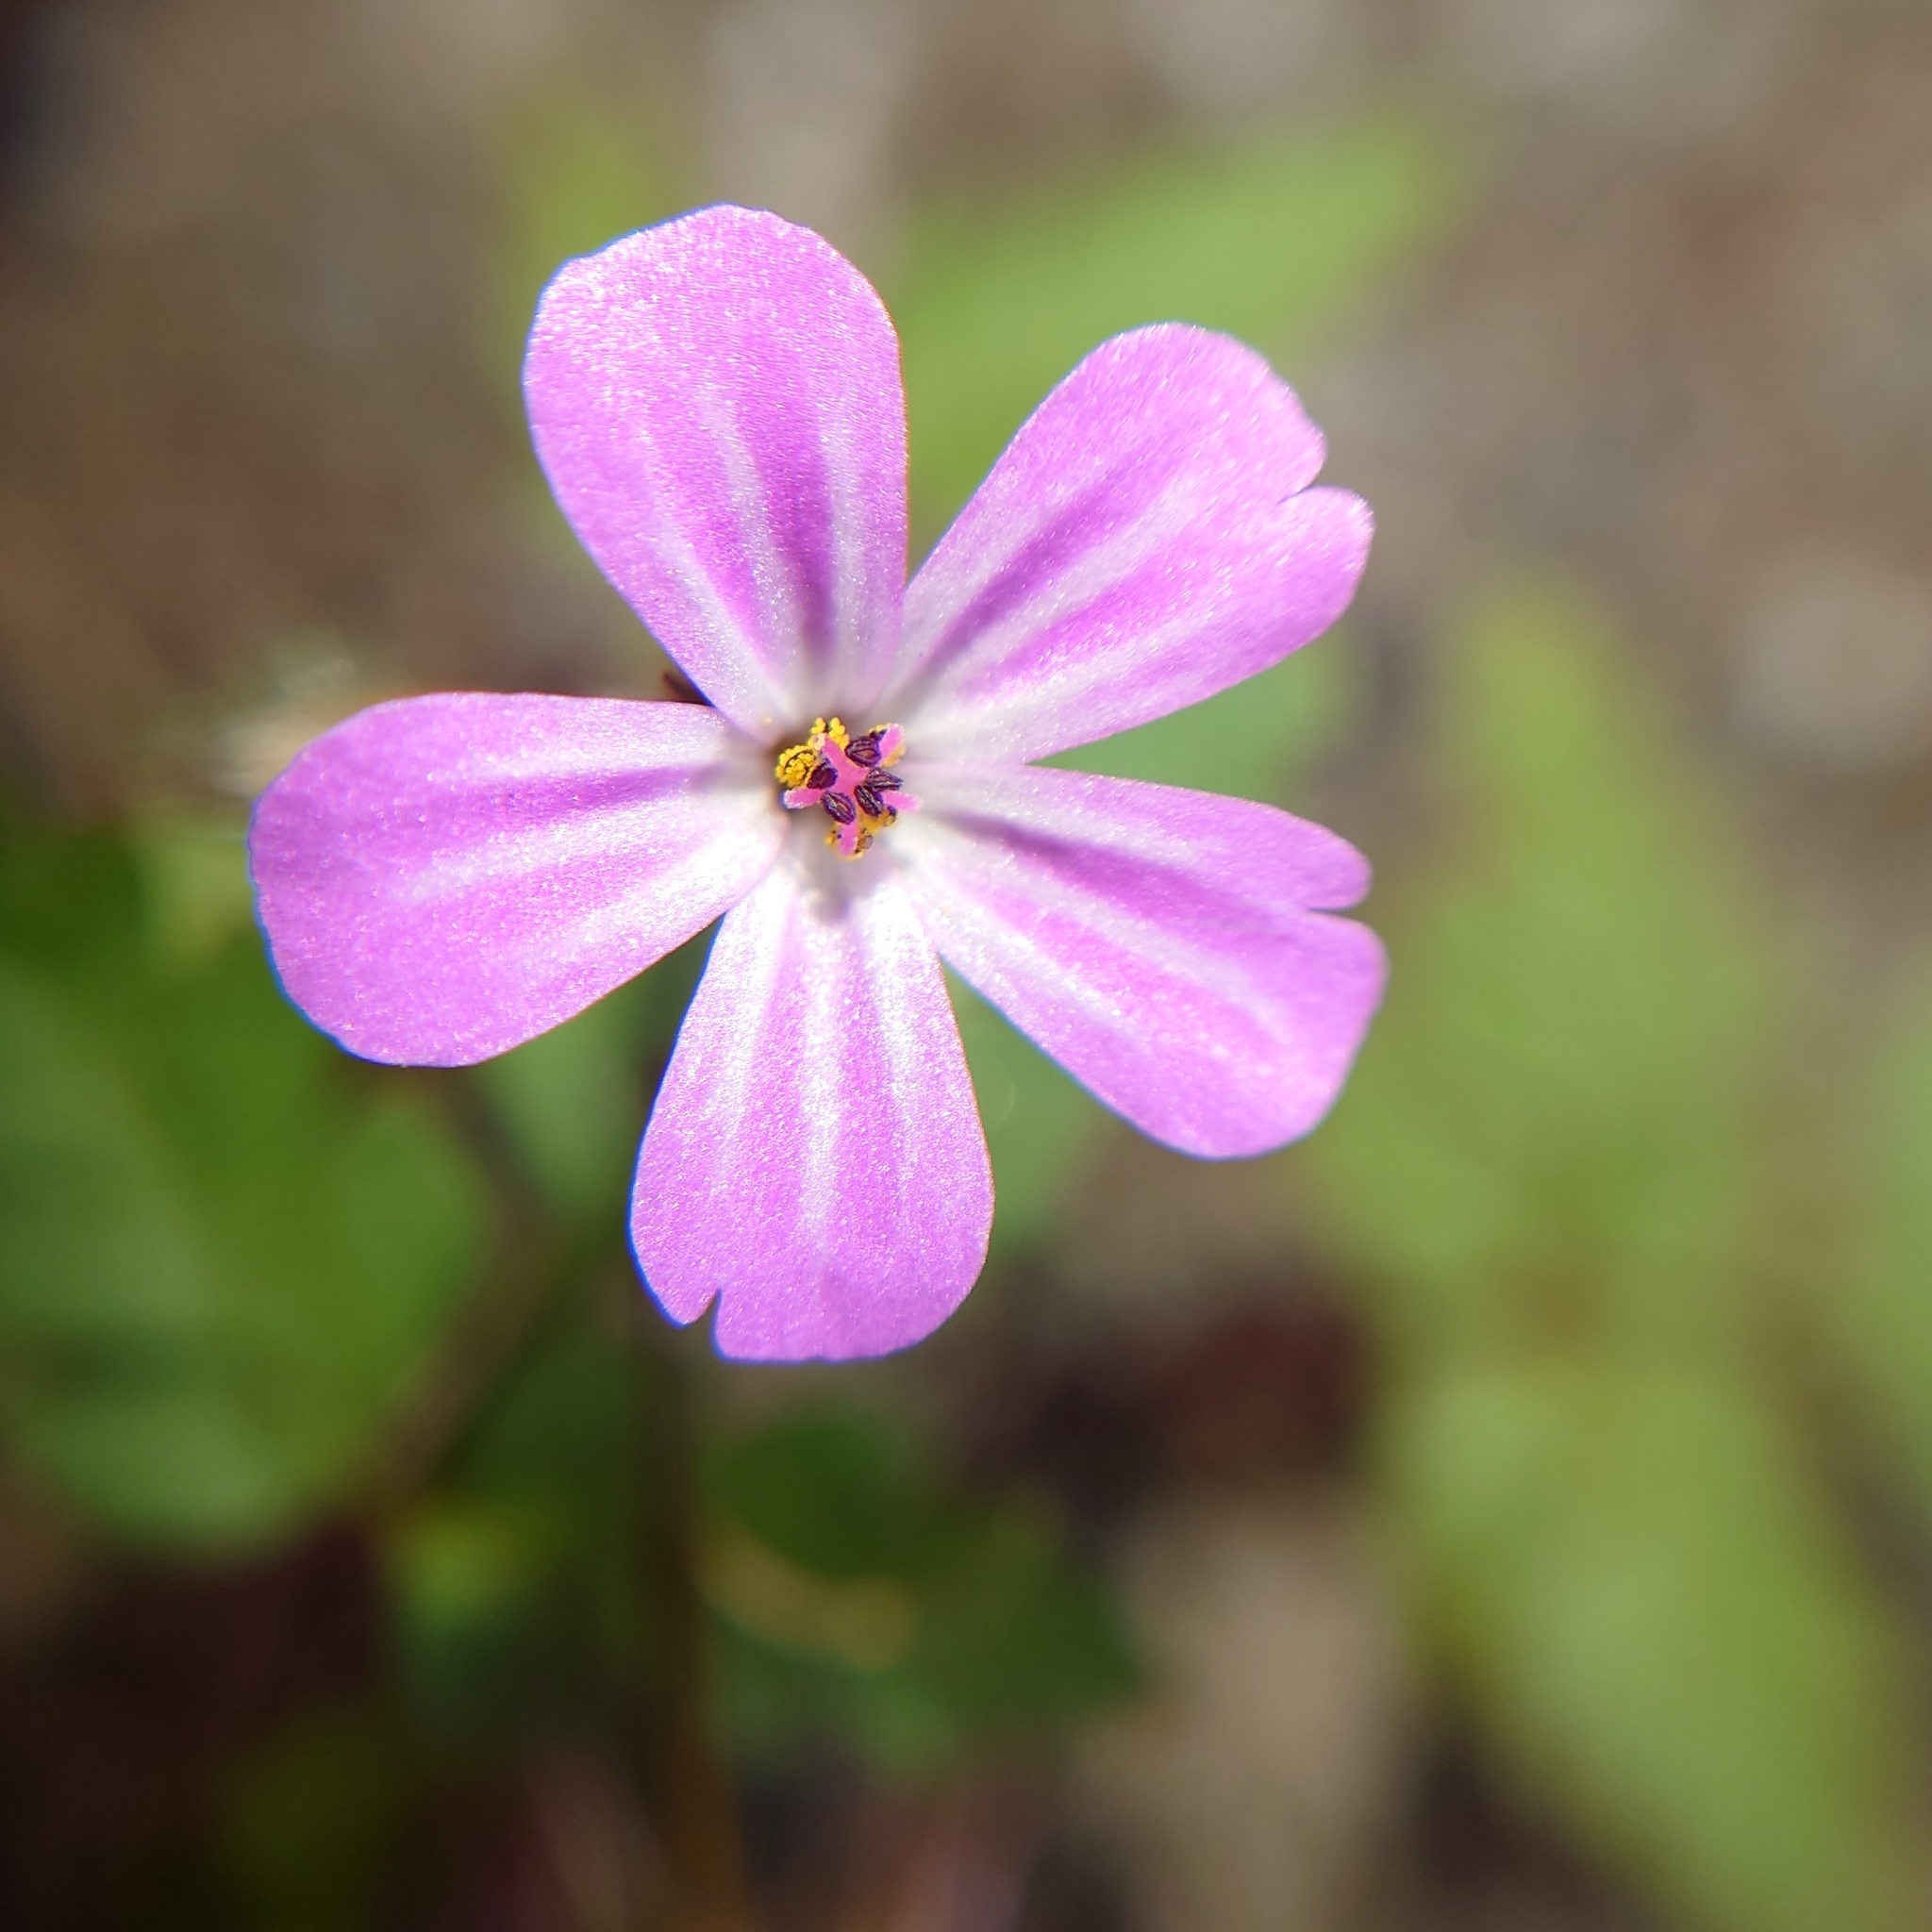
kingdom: Plantae
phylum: Tracheophyta
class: Magnoliopsida
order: Geraniales
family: Geraniaceae
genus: Geranium
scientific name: Geranium robertianum
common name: Herb-robert
